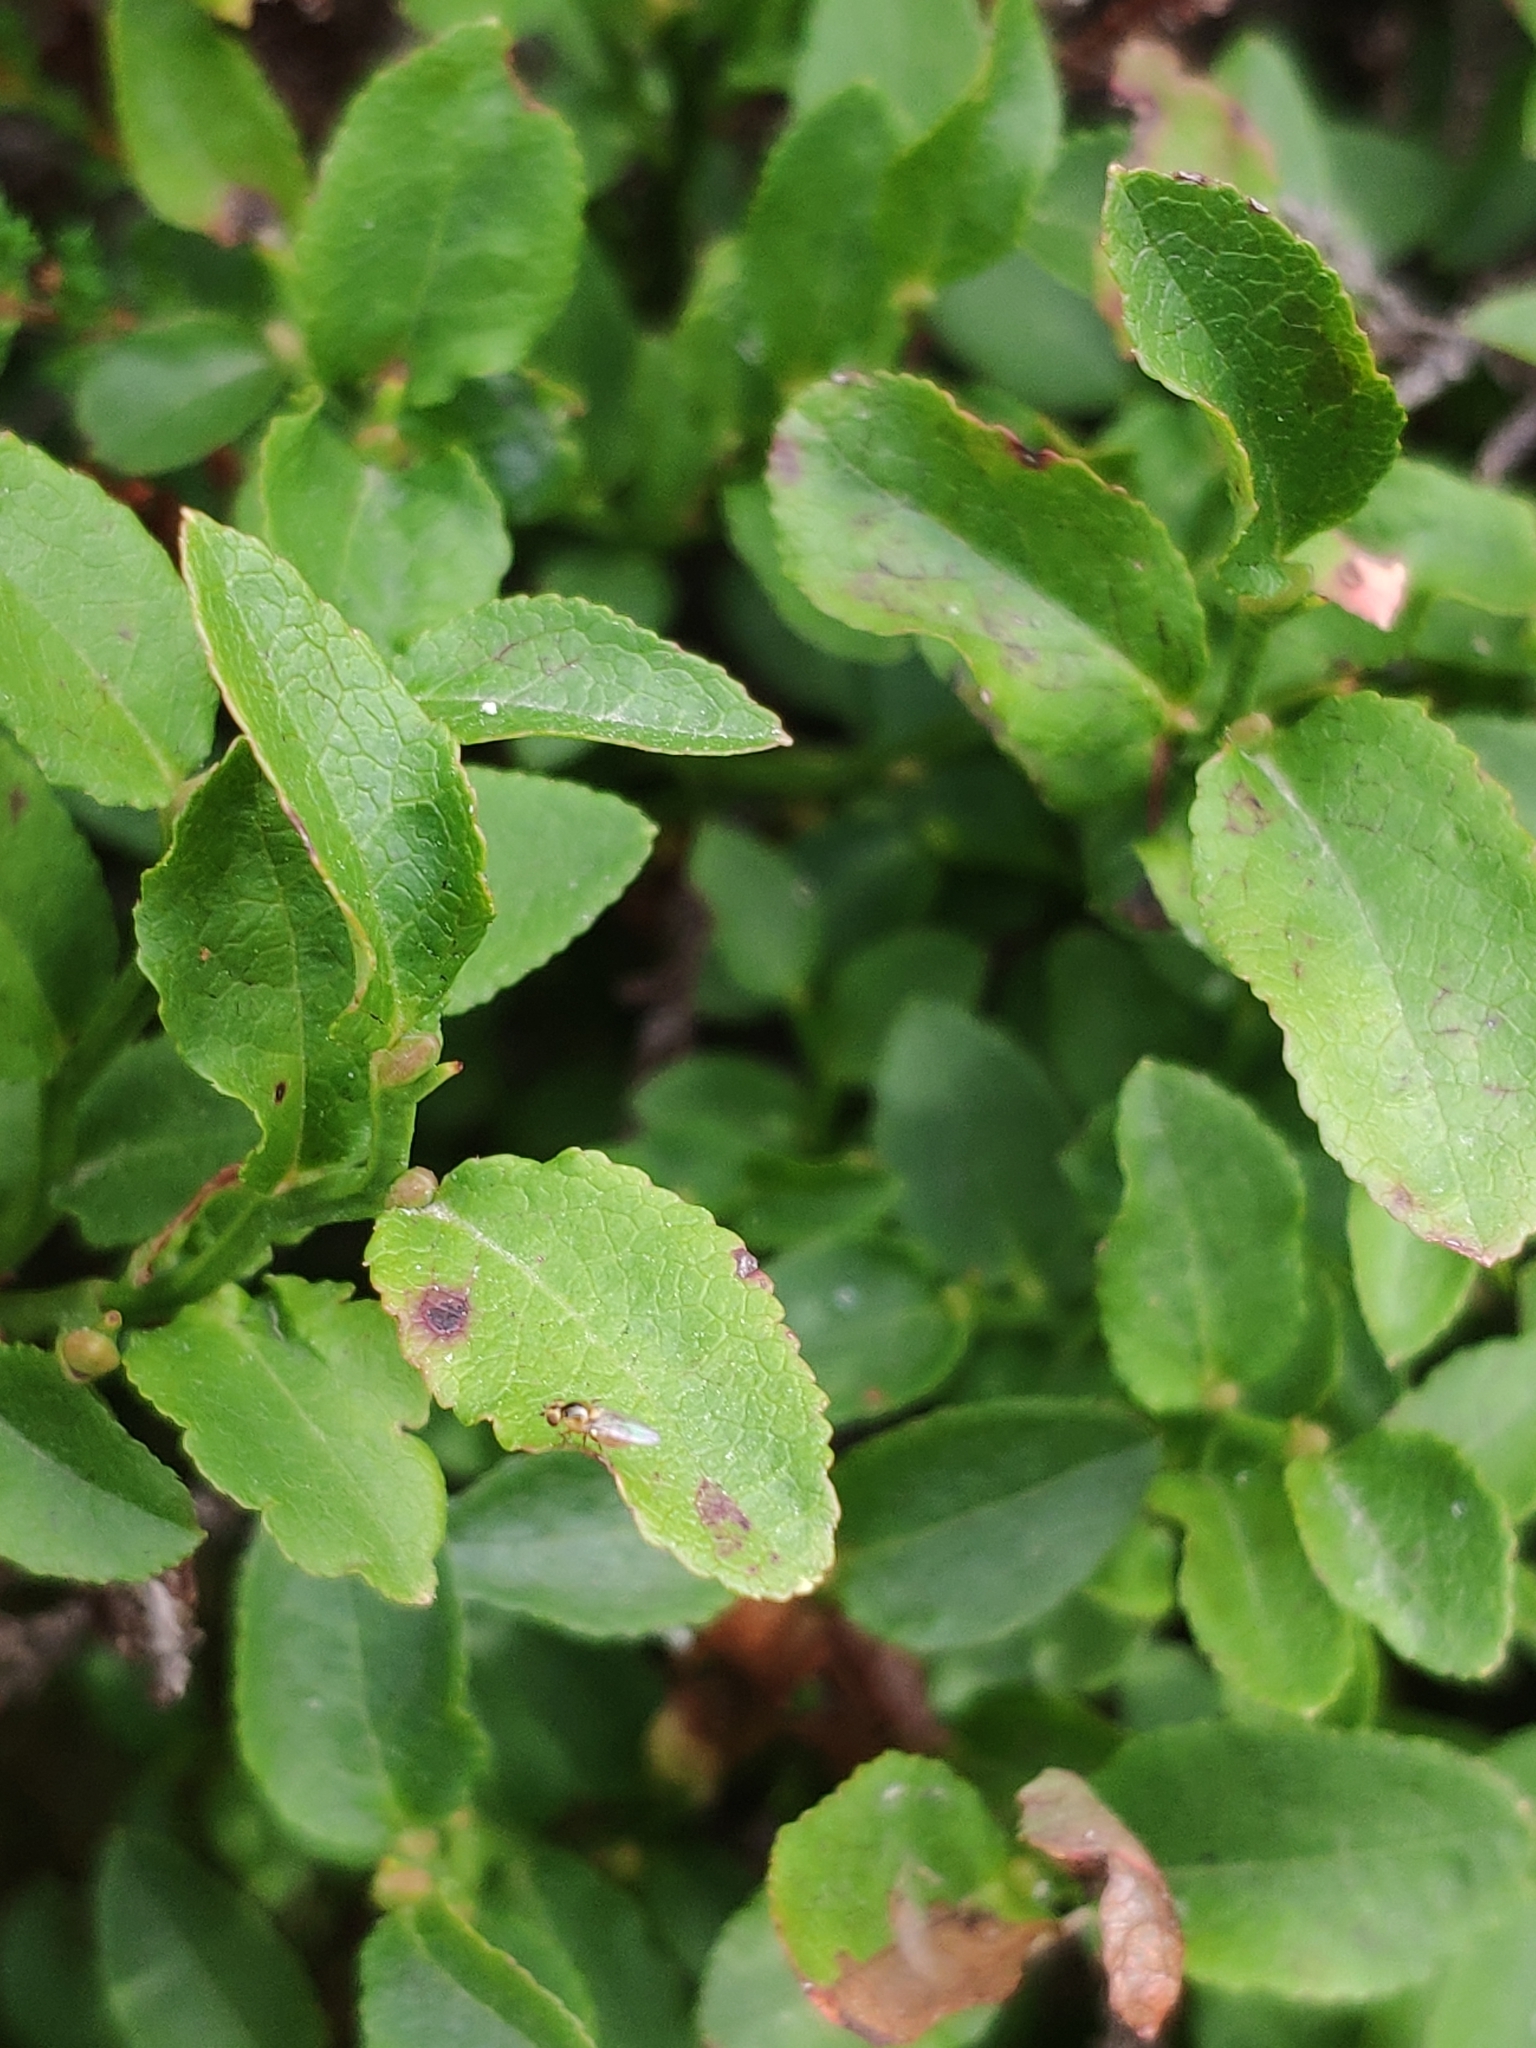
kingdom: Plantae
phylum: Tracheophyta
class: Magnoliopsida
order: Ericales
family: Ericaceae
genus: Vaccinium
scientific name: Vaccinium myrtillus
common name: Bilberry
